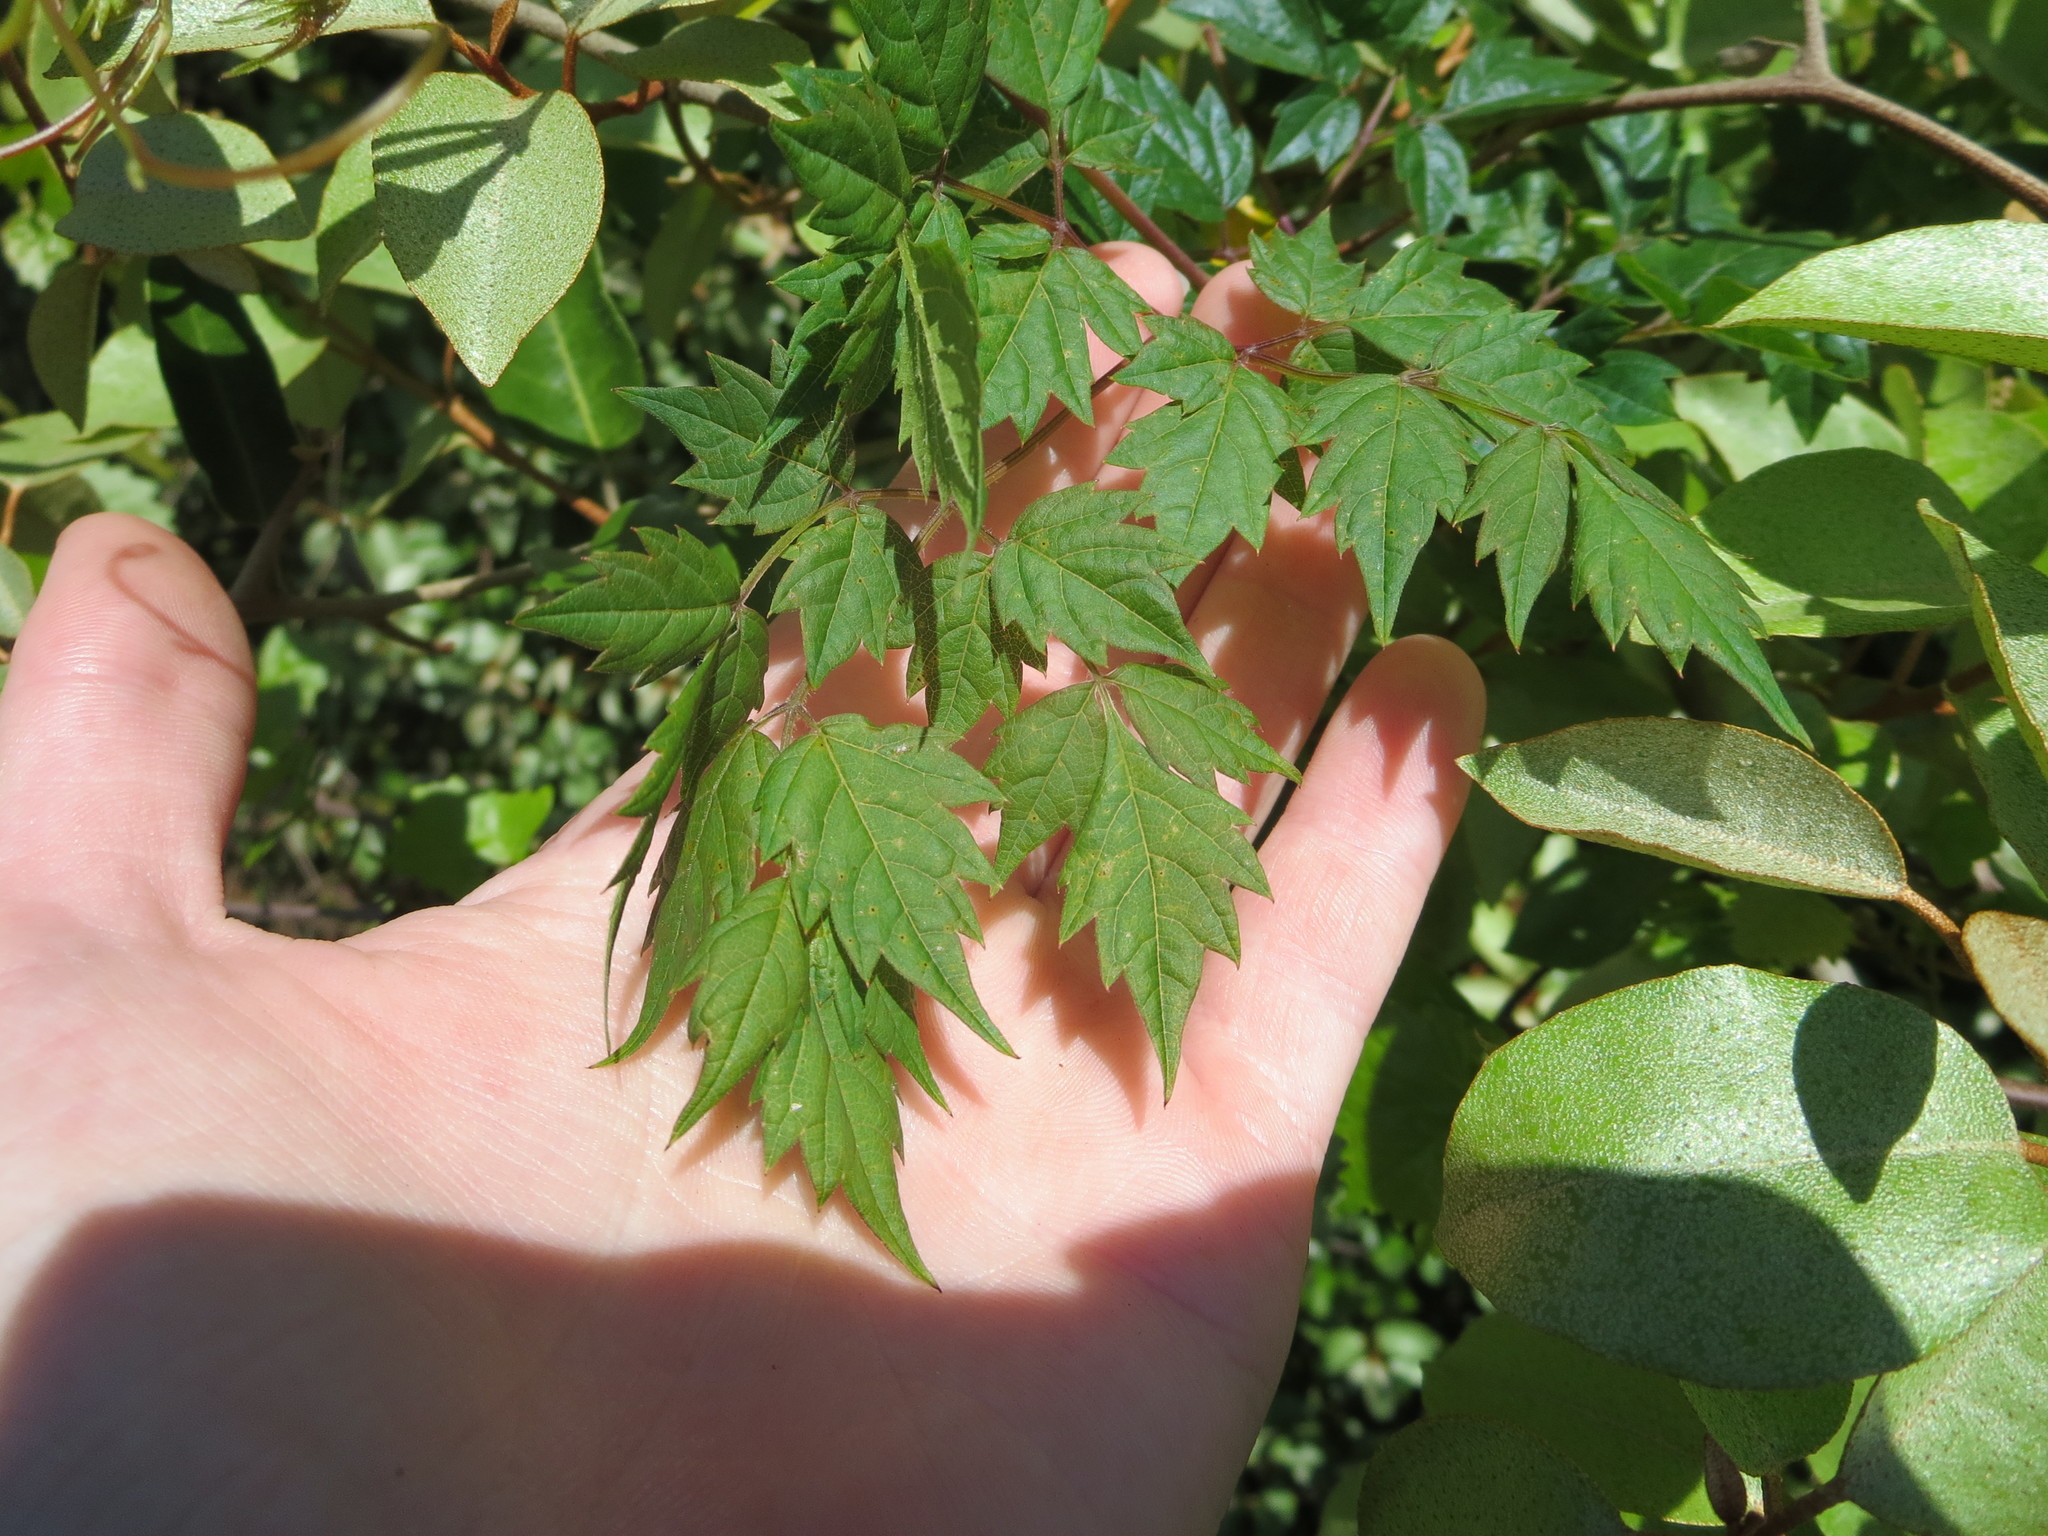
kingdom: Plantae
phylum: Tracheophyta
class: Magnoliopsida
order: Vitales
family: Vitaceae
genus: Nekemias
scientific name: Nekemias arborea
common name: Peppervine
